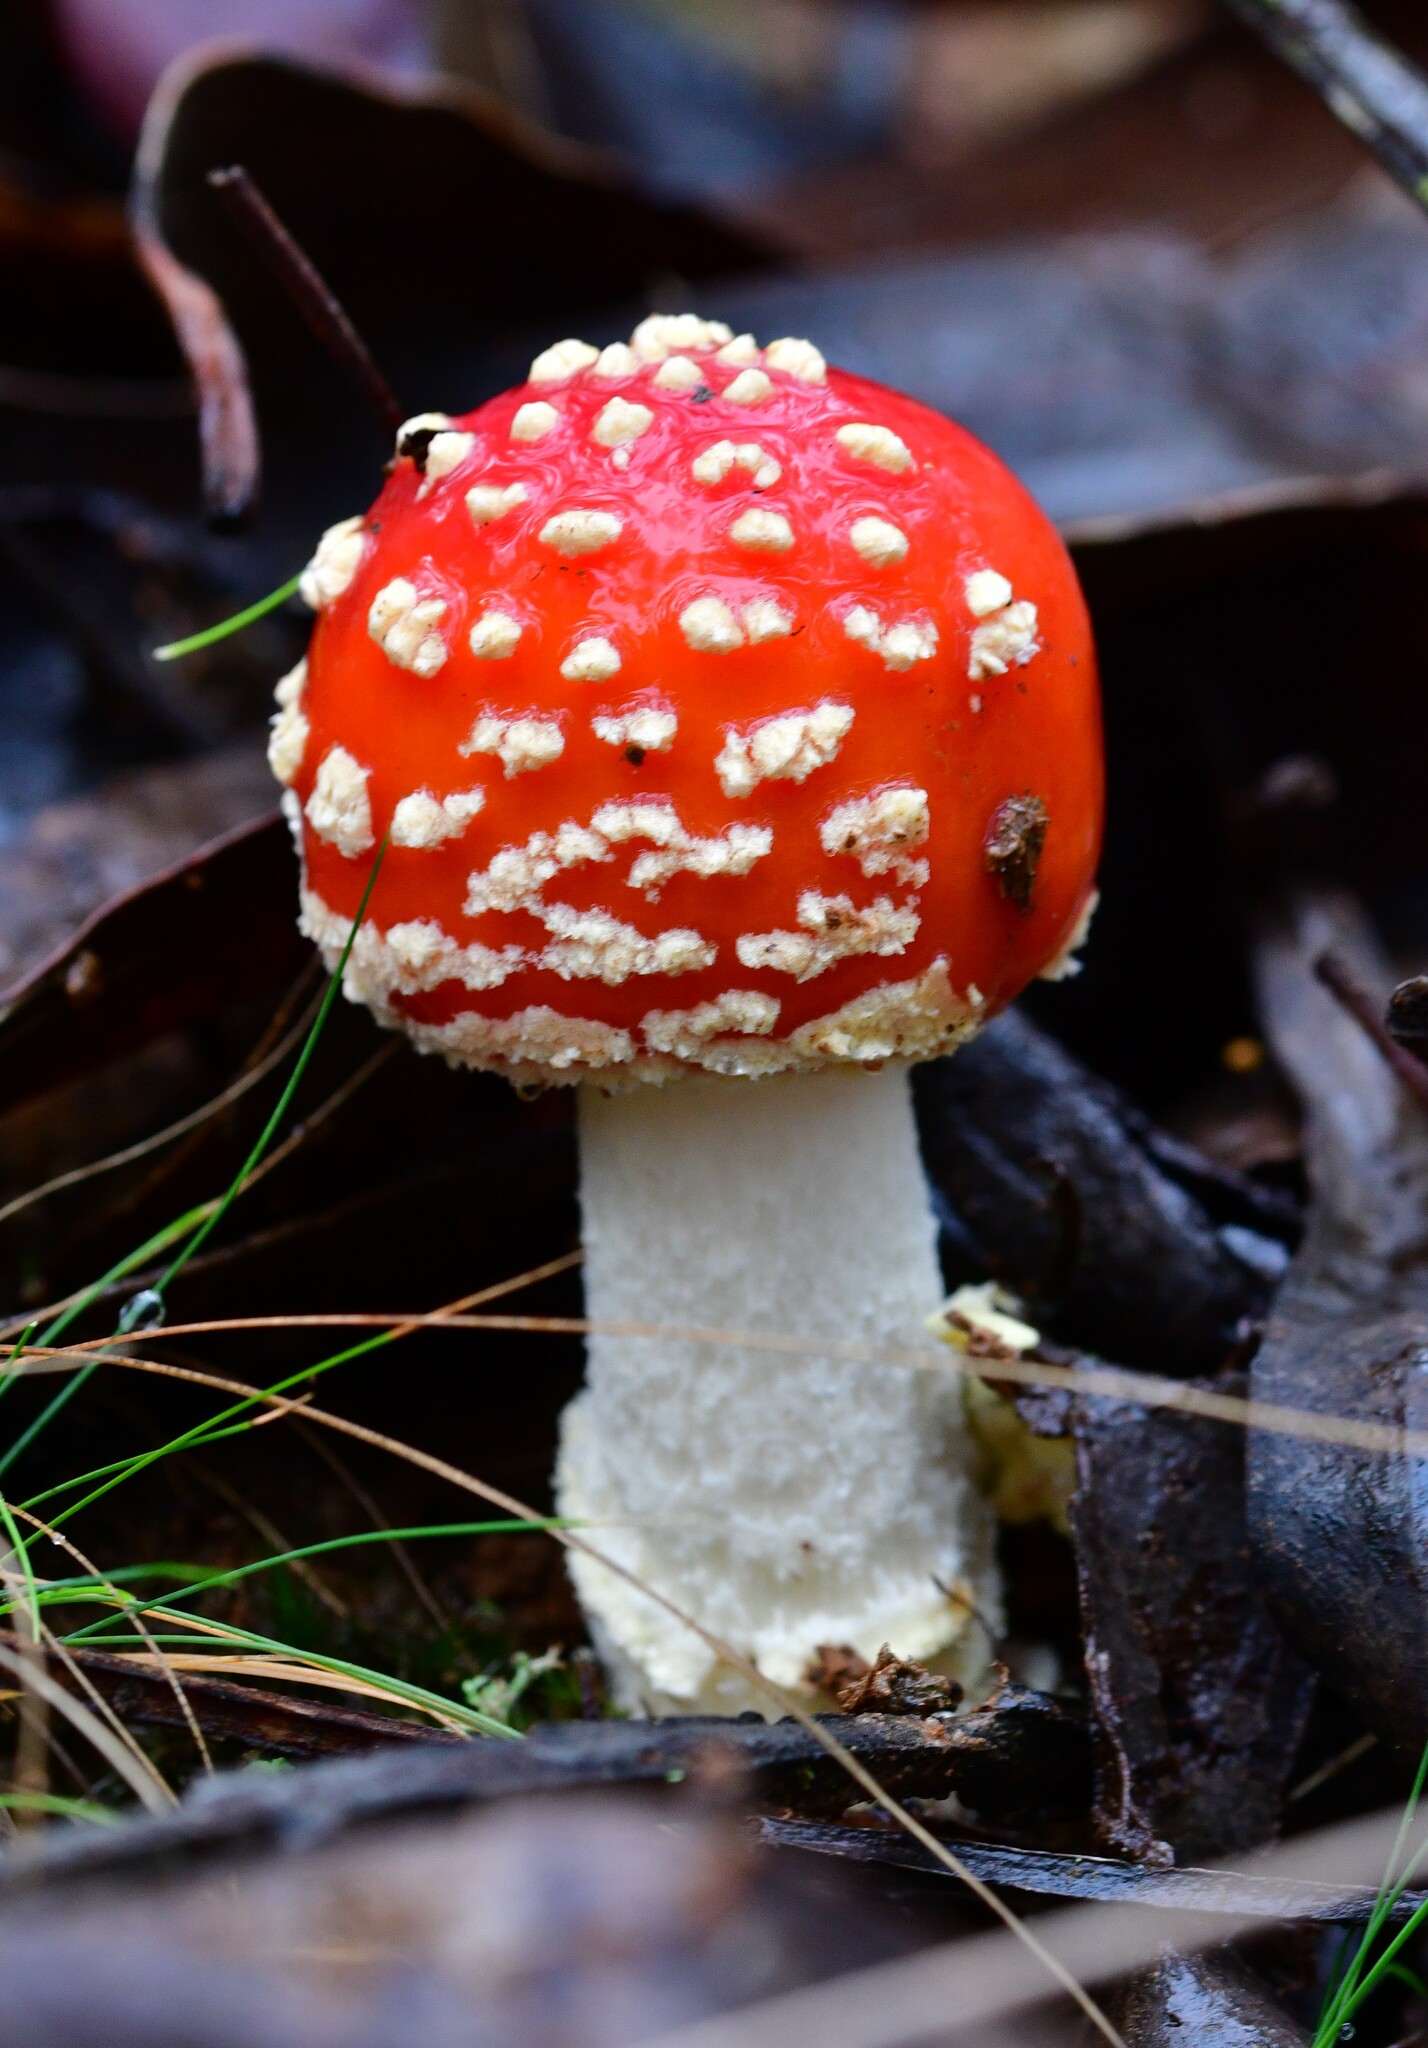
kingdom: Fungi
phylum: Basidiomycota
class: Agaricomycetes
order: Agaricales
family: Amanitaceae
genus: Amanita
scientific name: Amanita muscaria
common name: Fly agaric
